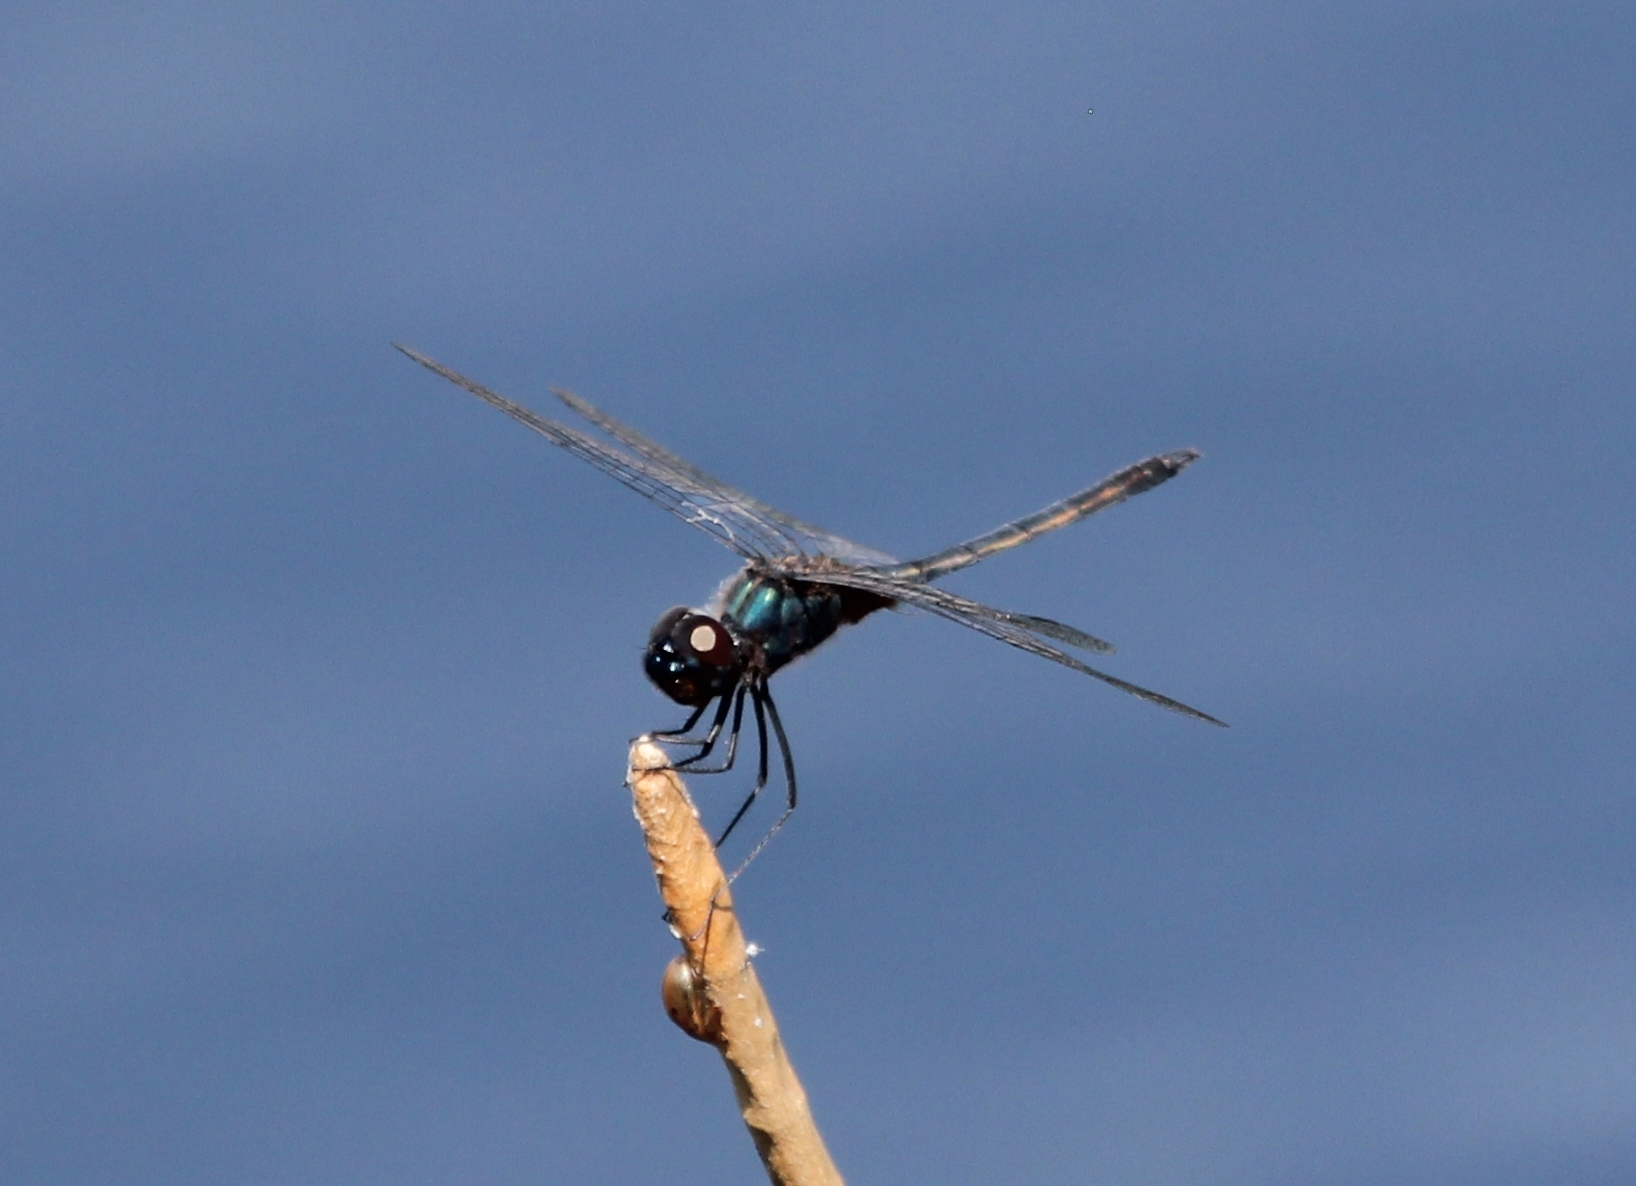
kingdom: Animalia
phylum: Arthropoda
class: Insecta
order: Odonata
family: Libellulidae
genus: Idiataphe
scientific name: Idiataphe cubensis
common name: Metallic pennant
